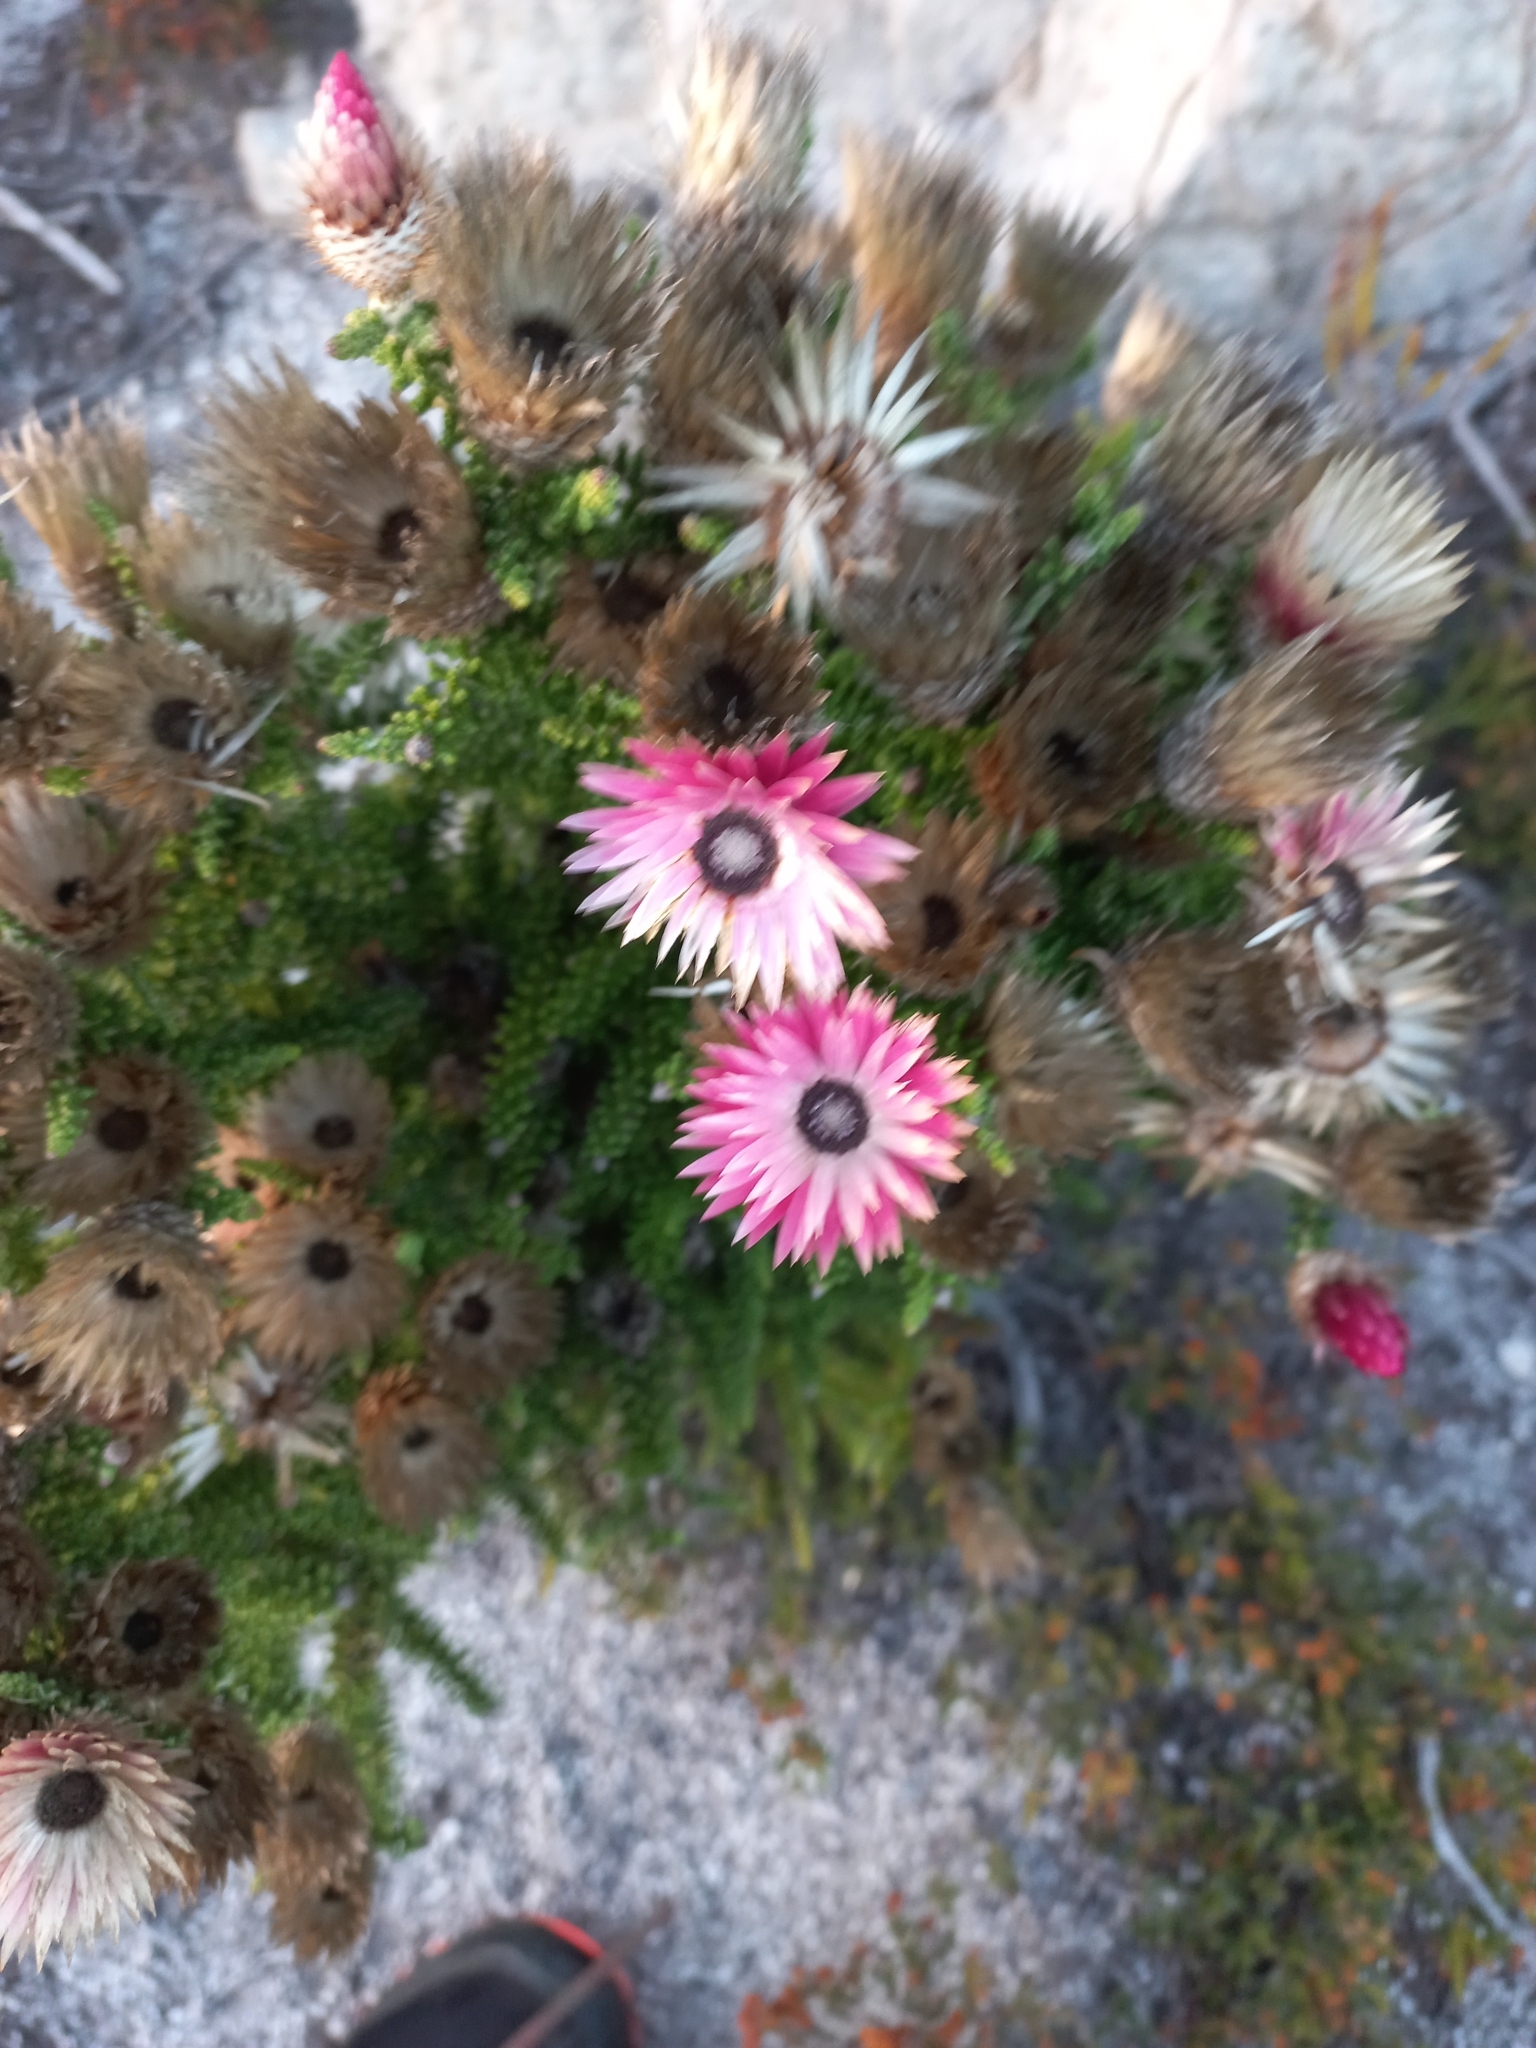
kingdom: Plantae
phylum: Tracheophyta
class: Magnoliopsida
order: Asterales
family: Asteraceae
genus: Phaenocoma
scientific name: Phaenocoma prolifera
